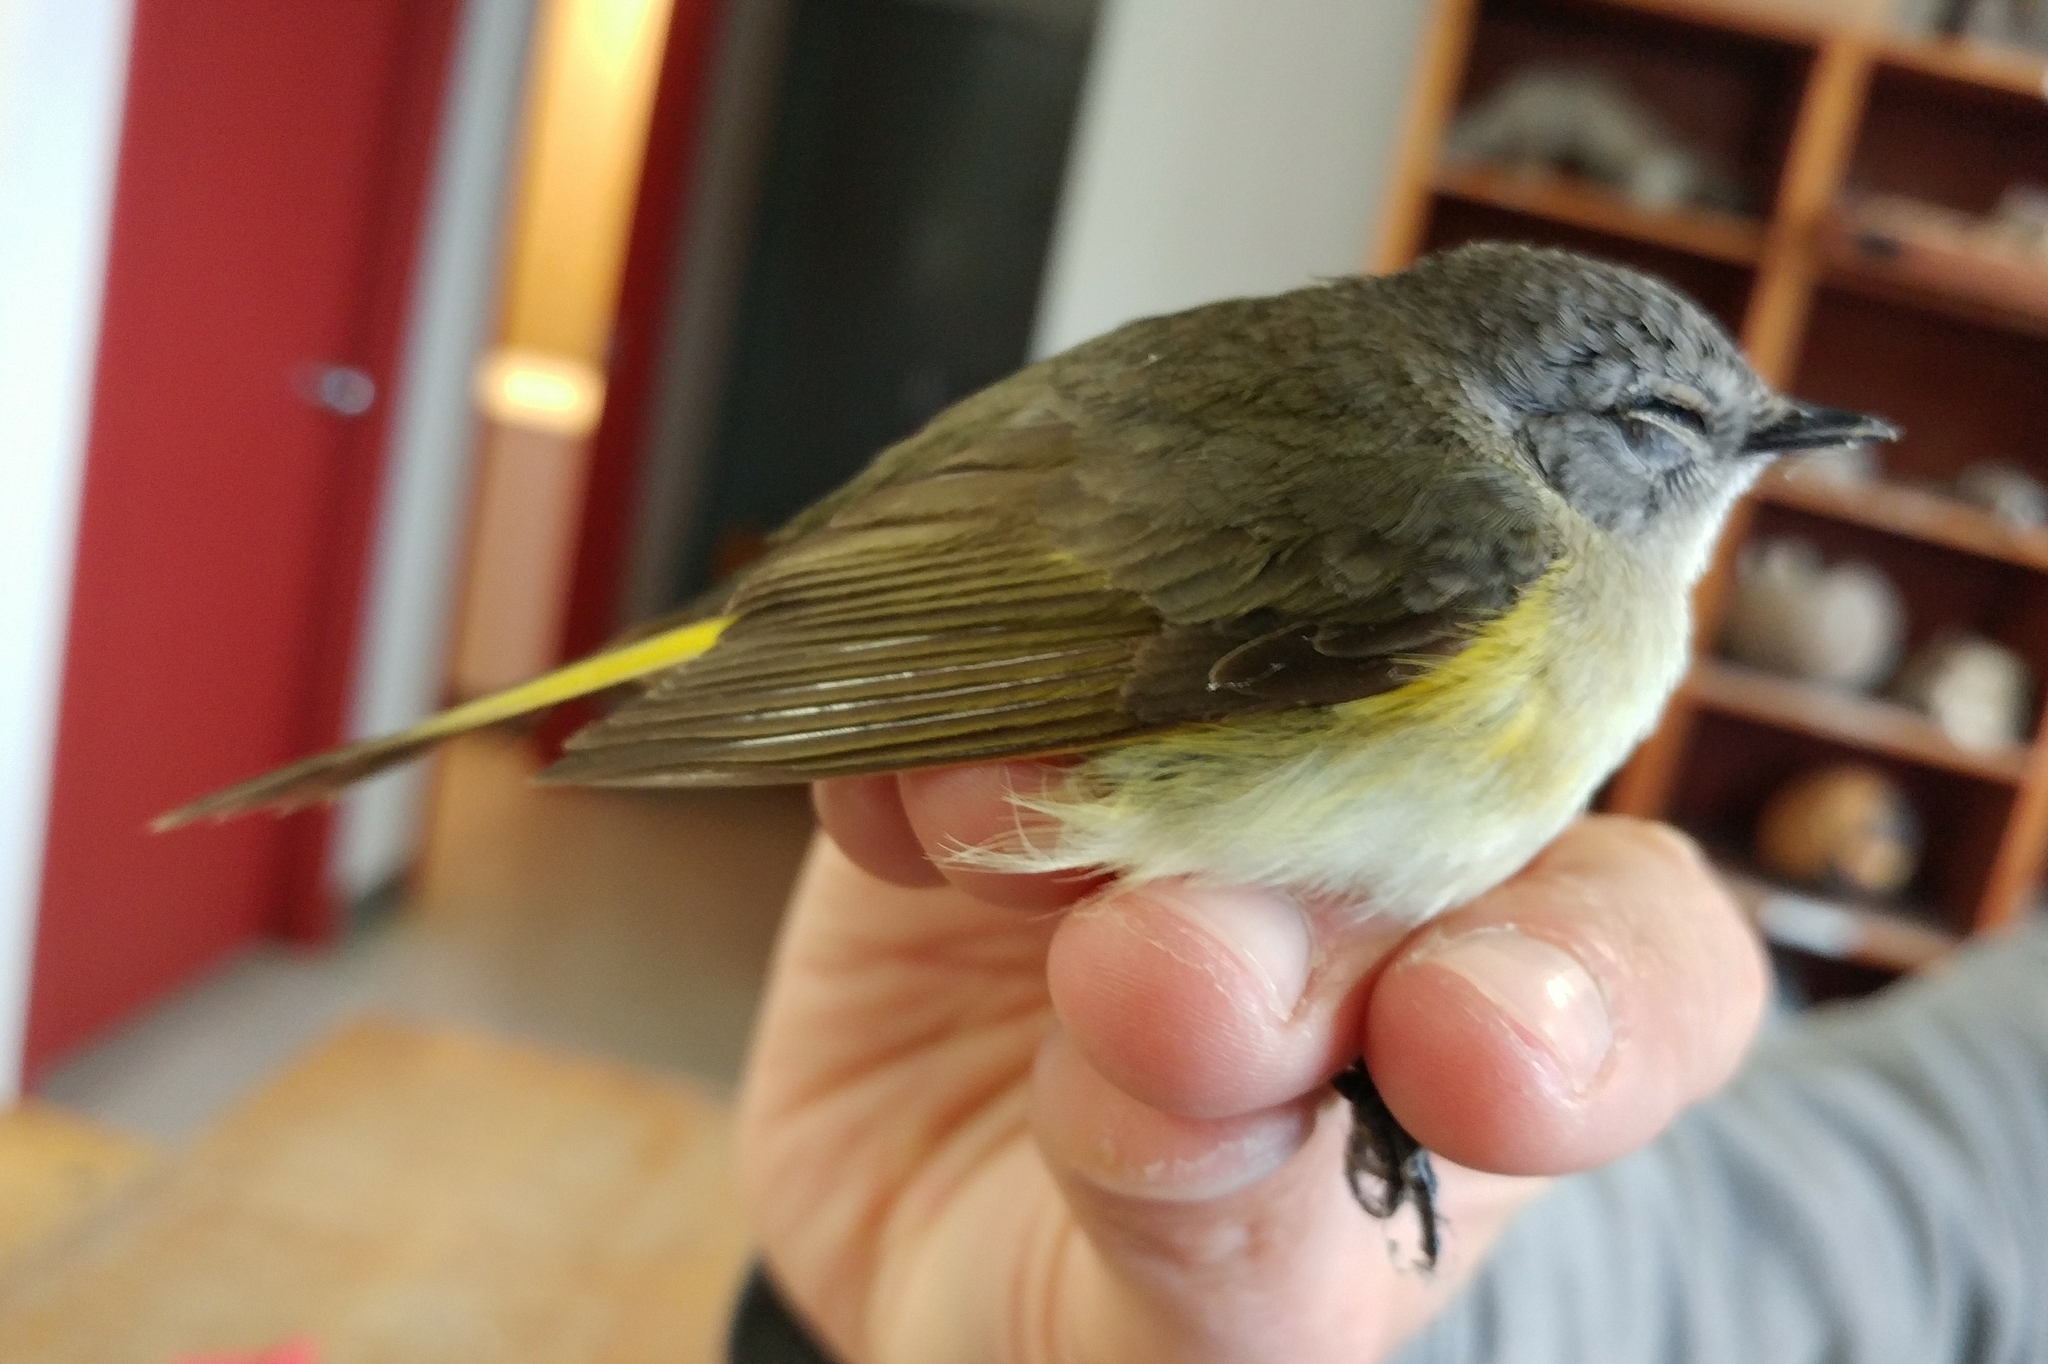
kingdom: Animalia
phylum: Chordata
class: Aves
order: Passeriformes
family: Parulidae
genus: Setophaga
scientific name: Setophaga ruticilla
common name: American redstart
